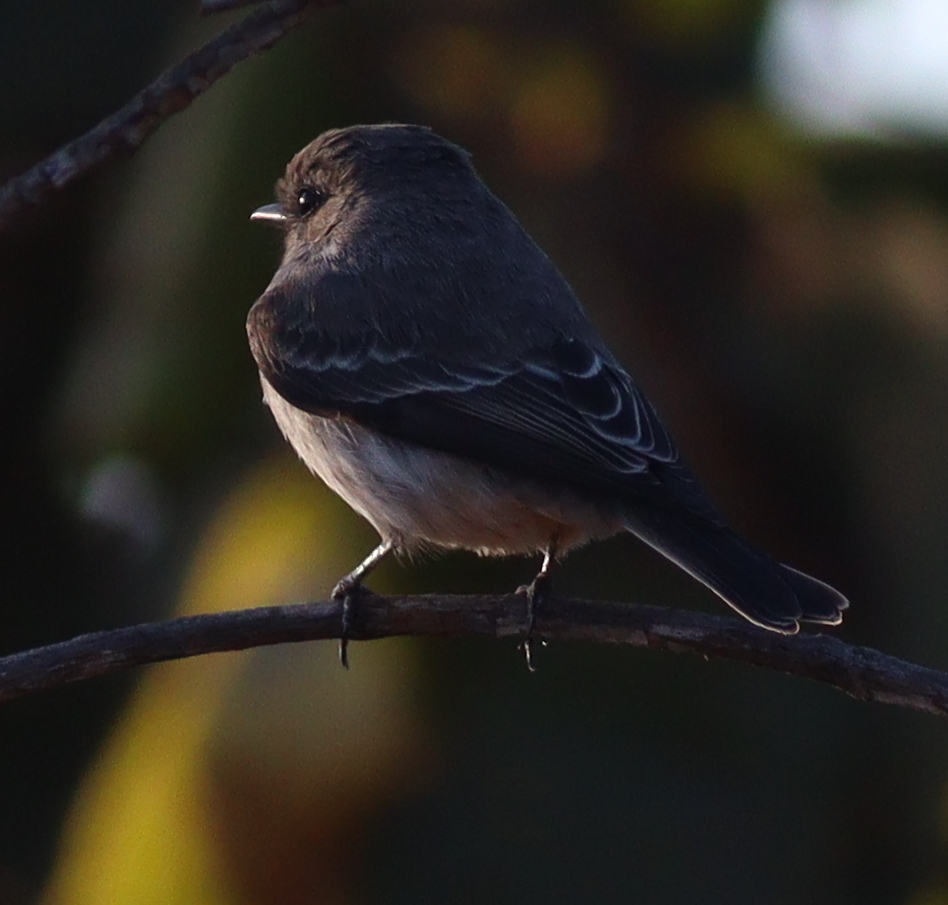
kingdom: Animalia
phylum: Chordata
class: Aves
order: Passeriformes
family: Tyrannidae
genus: Pyrocephalus
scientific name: Pyrocephalus rubinus
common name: Vermilion flycatcher
